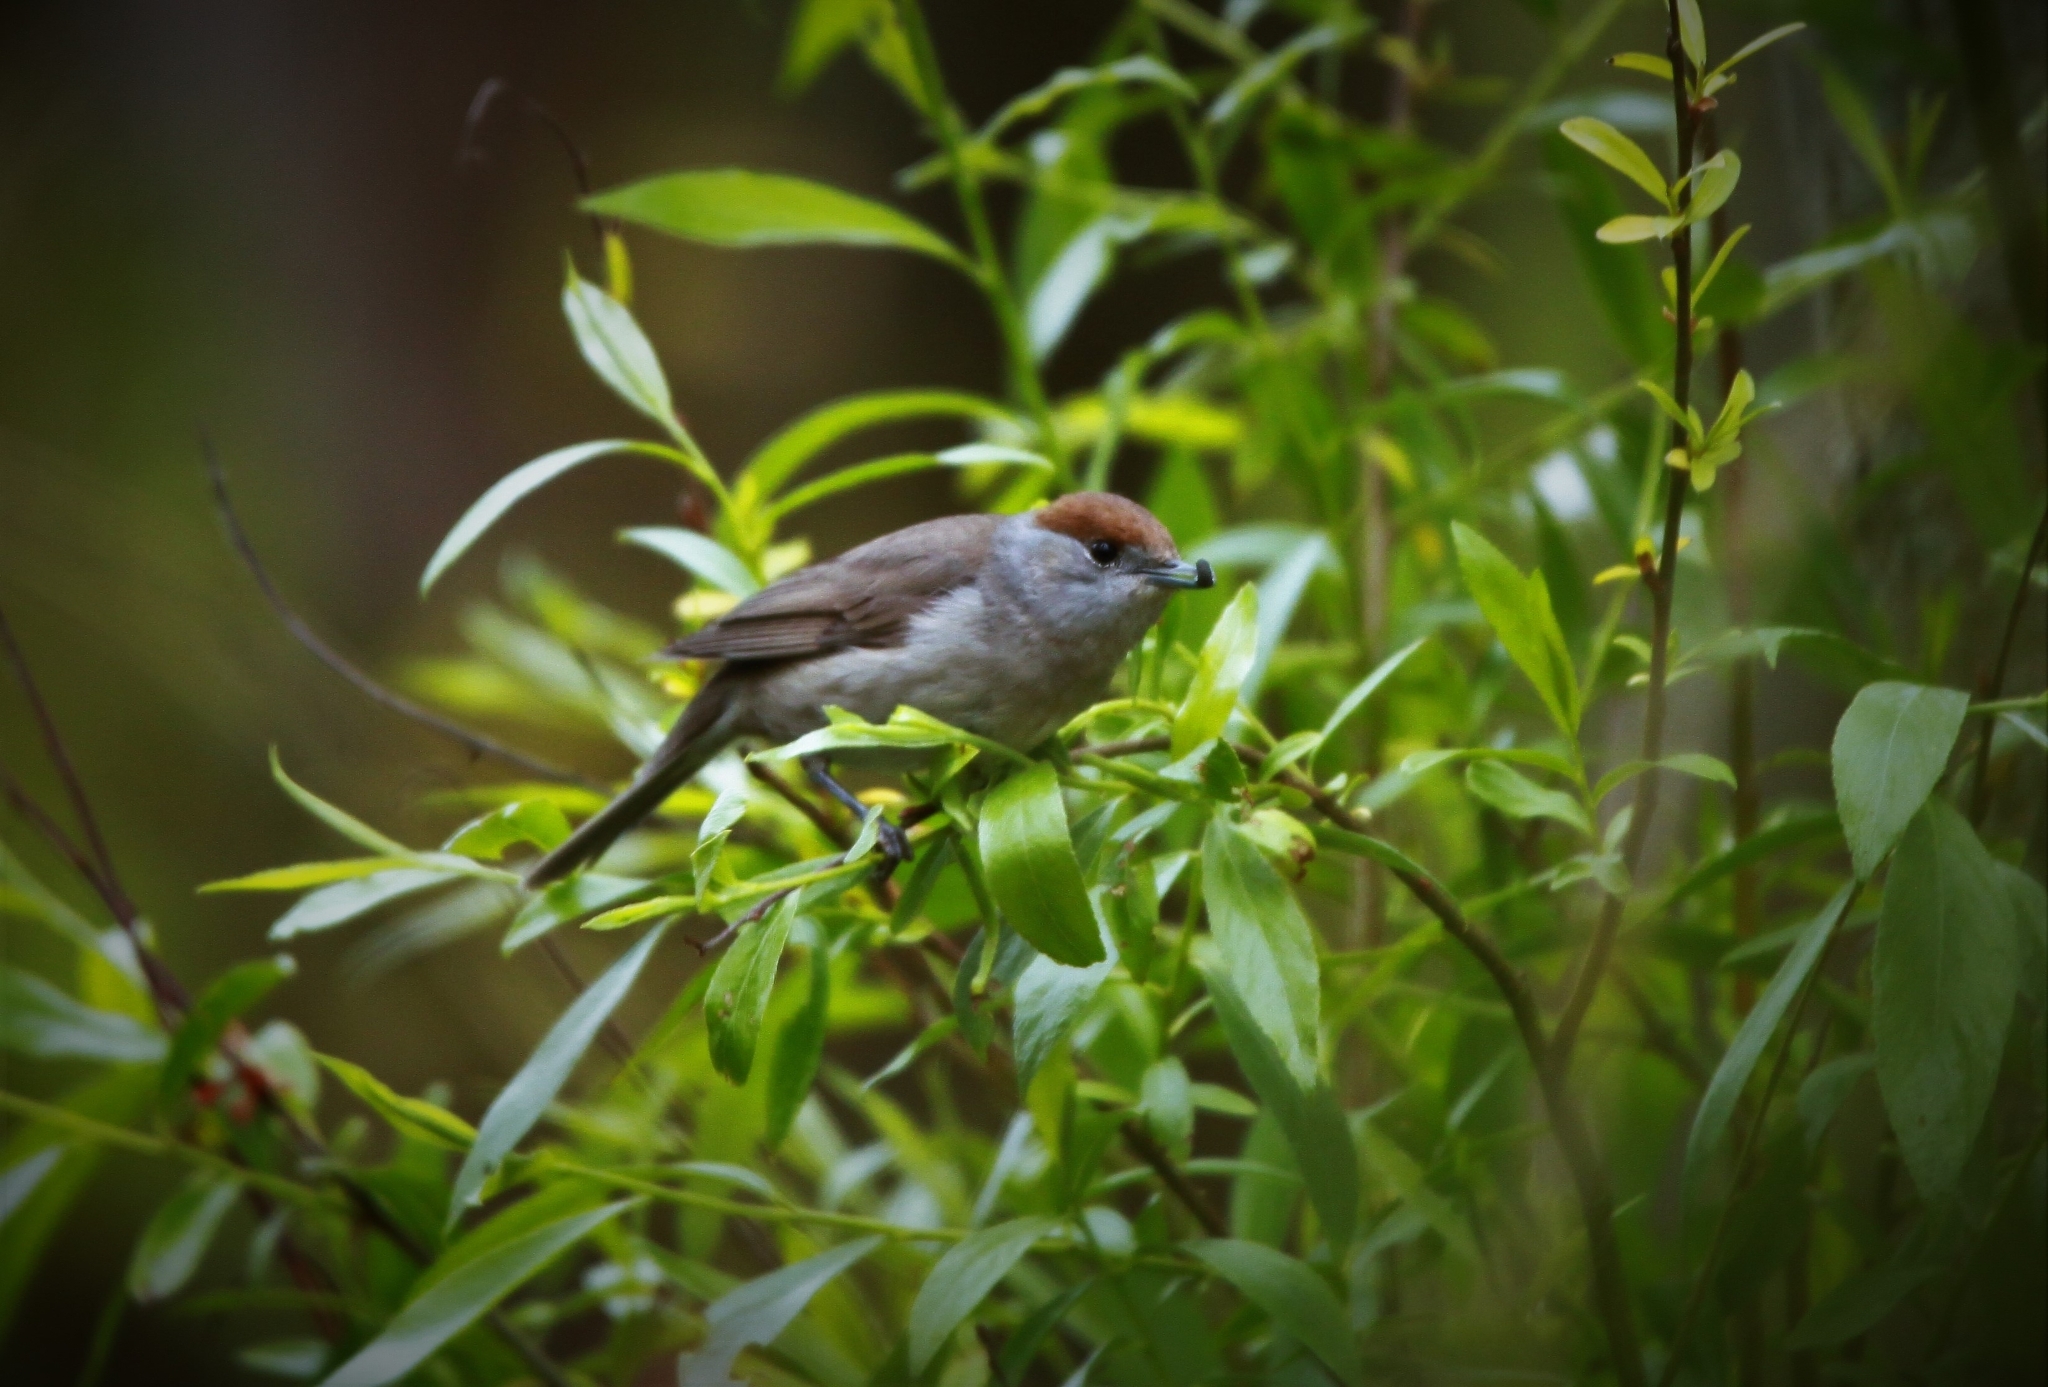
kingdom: Animalia
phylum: Chordata
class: Aves
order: Passeriformes
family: Sylviidae
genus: Sylvia
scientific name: Sylvia atricapilla
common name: Eurasian blackcap
